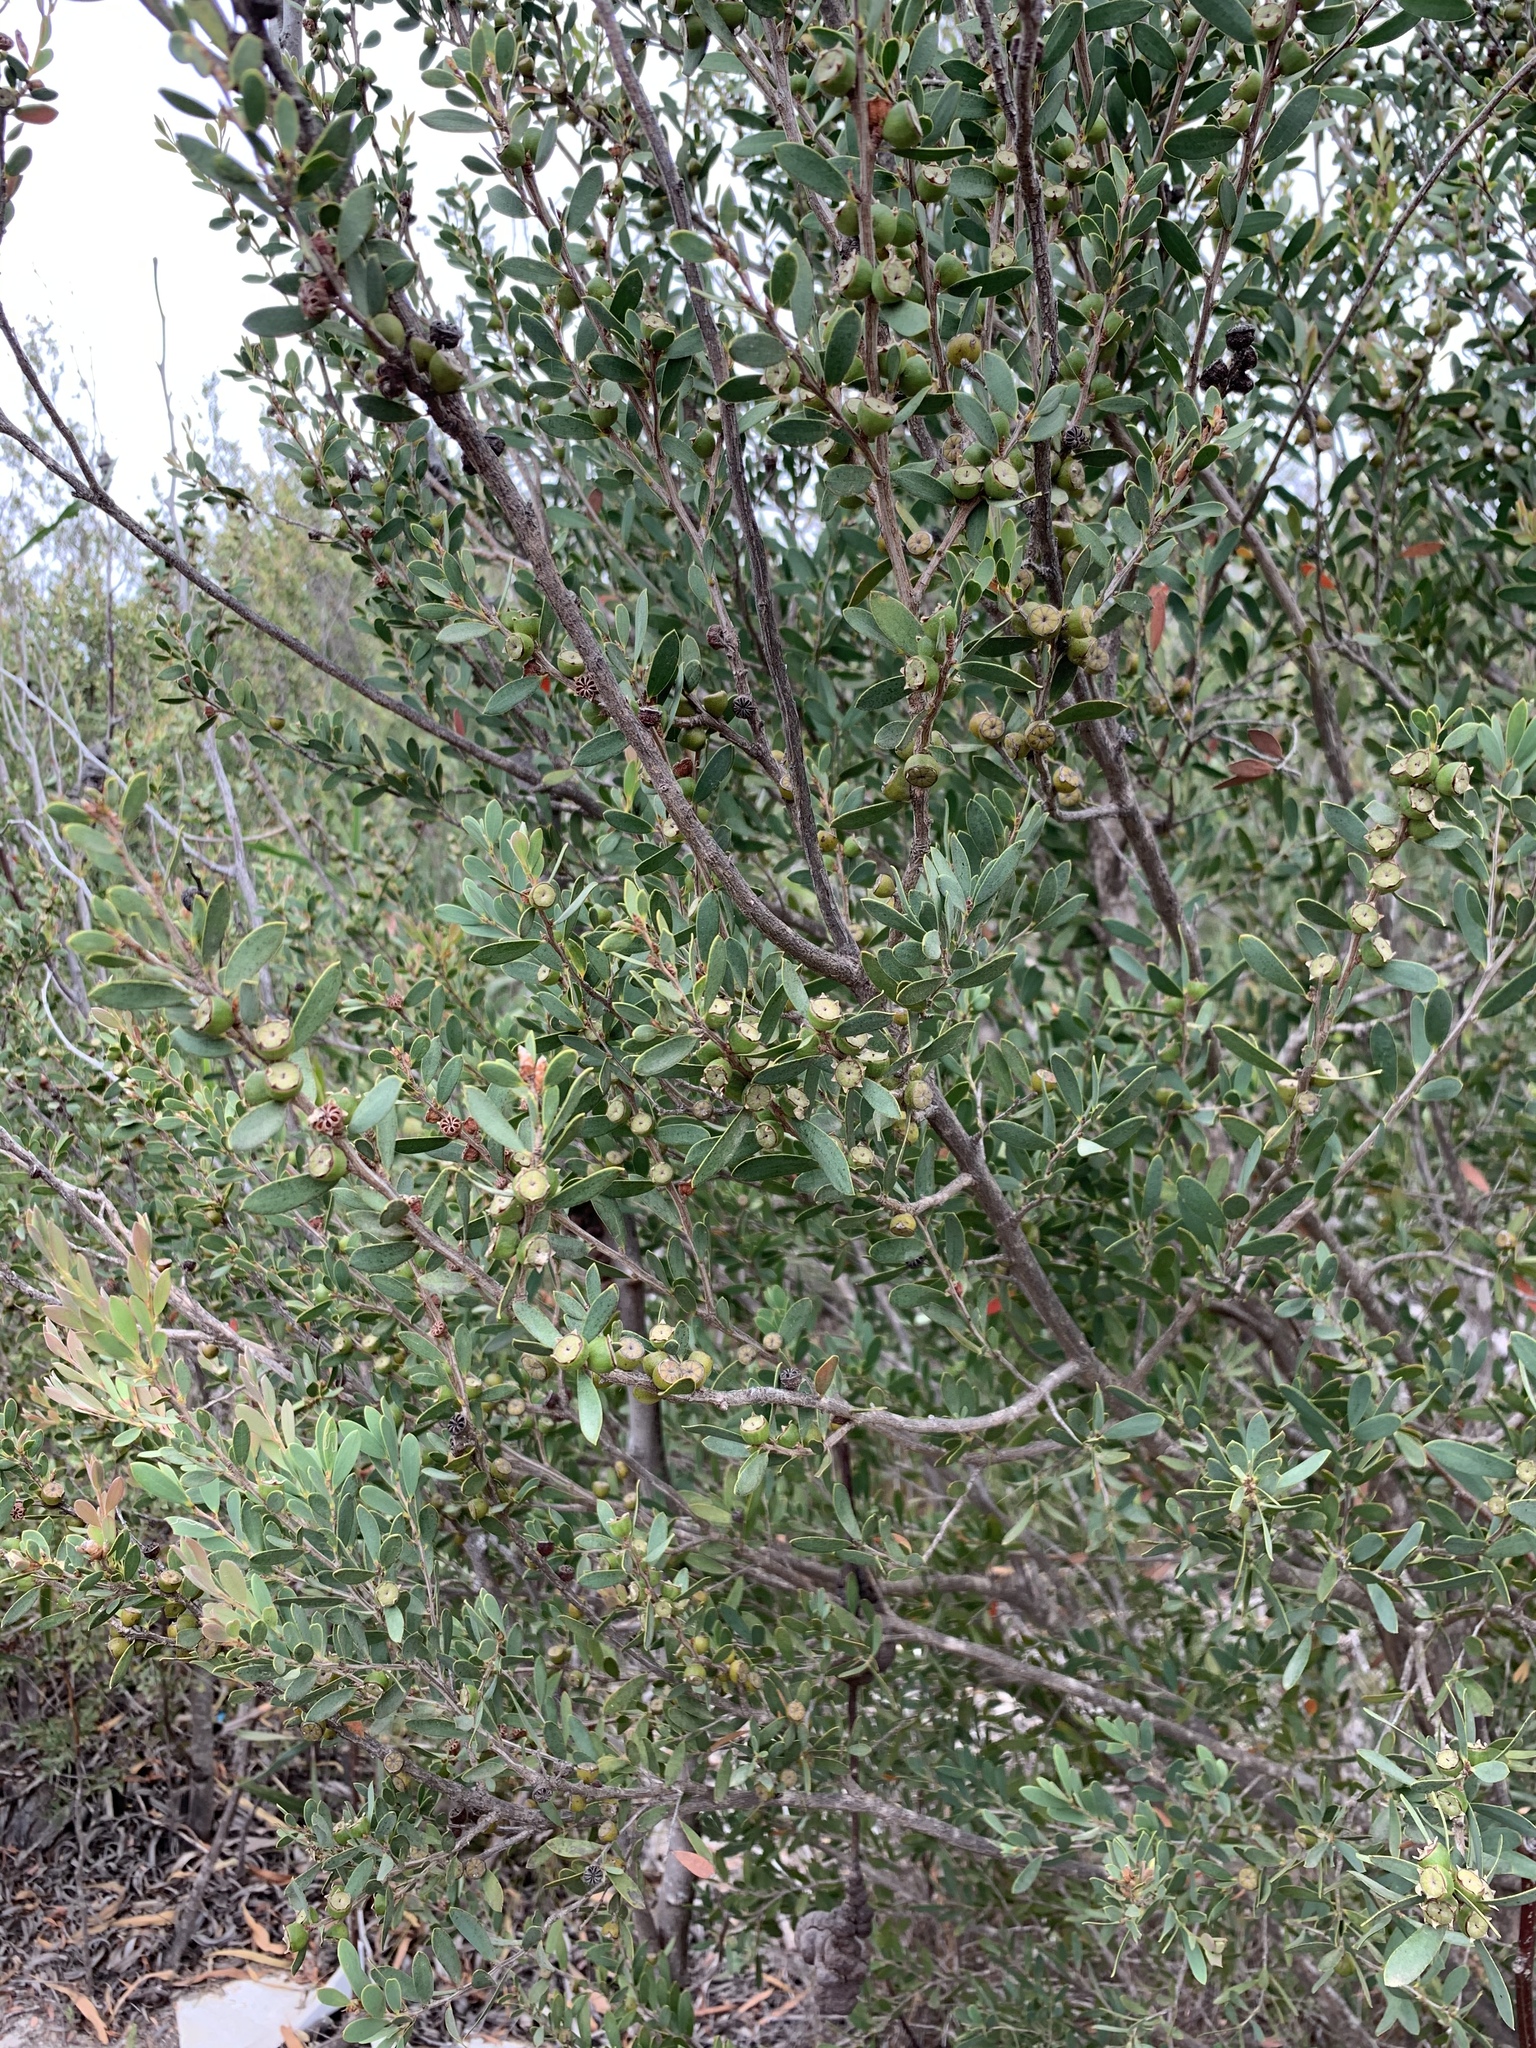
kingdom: Plantae
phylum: Tracheophyta
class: Magnoliopsida
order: Myrtales
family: Myrtaceae
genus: Leptospermum
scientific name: Leptospermum laevigatum
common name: Australian teatree
